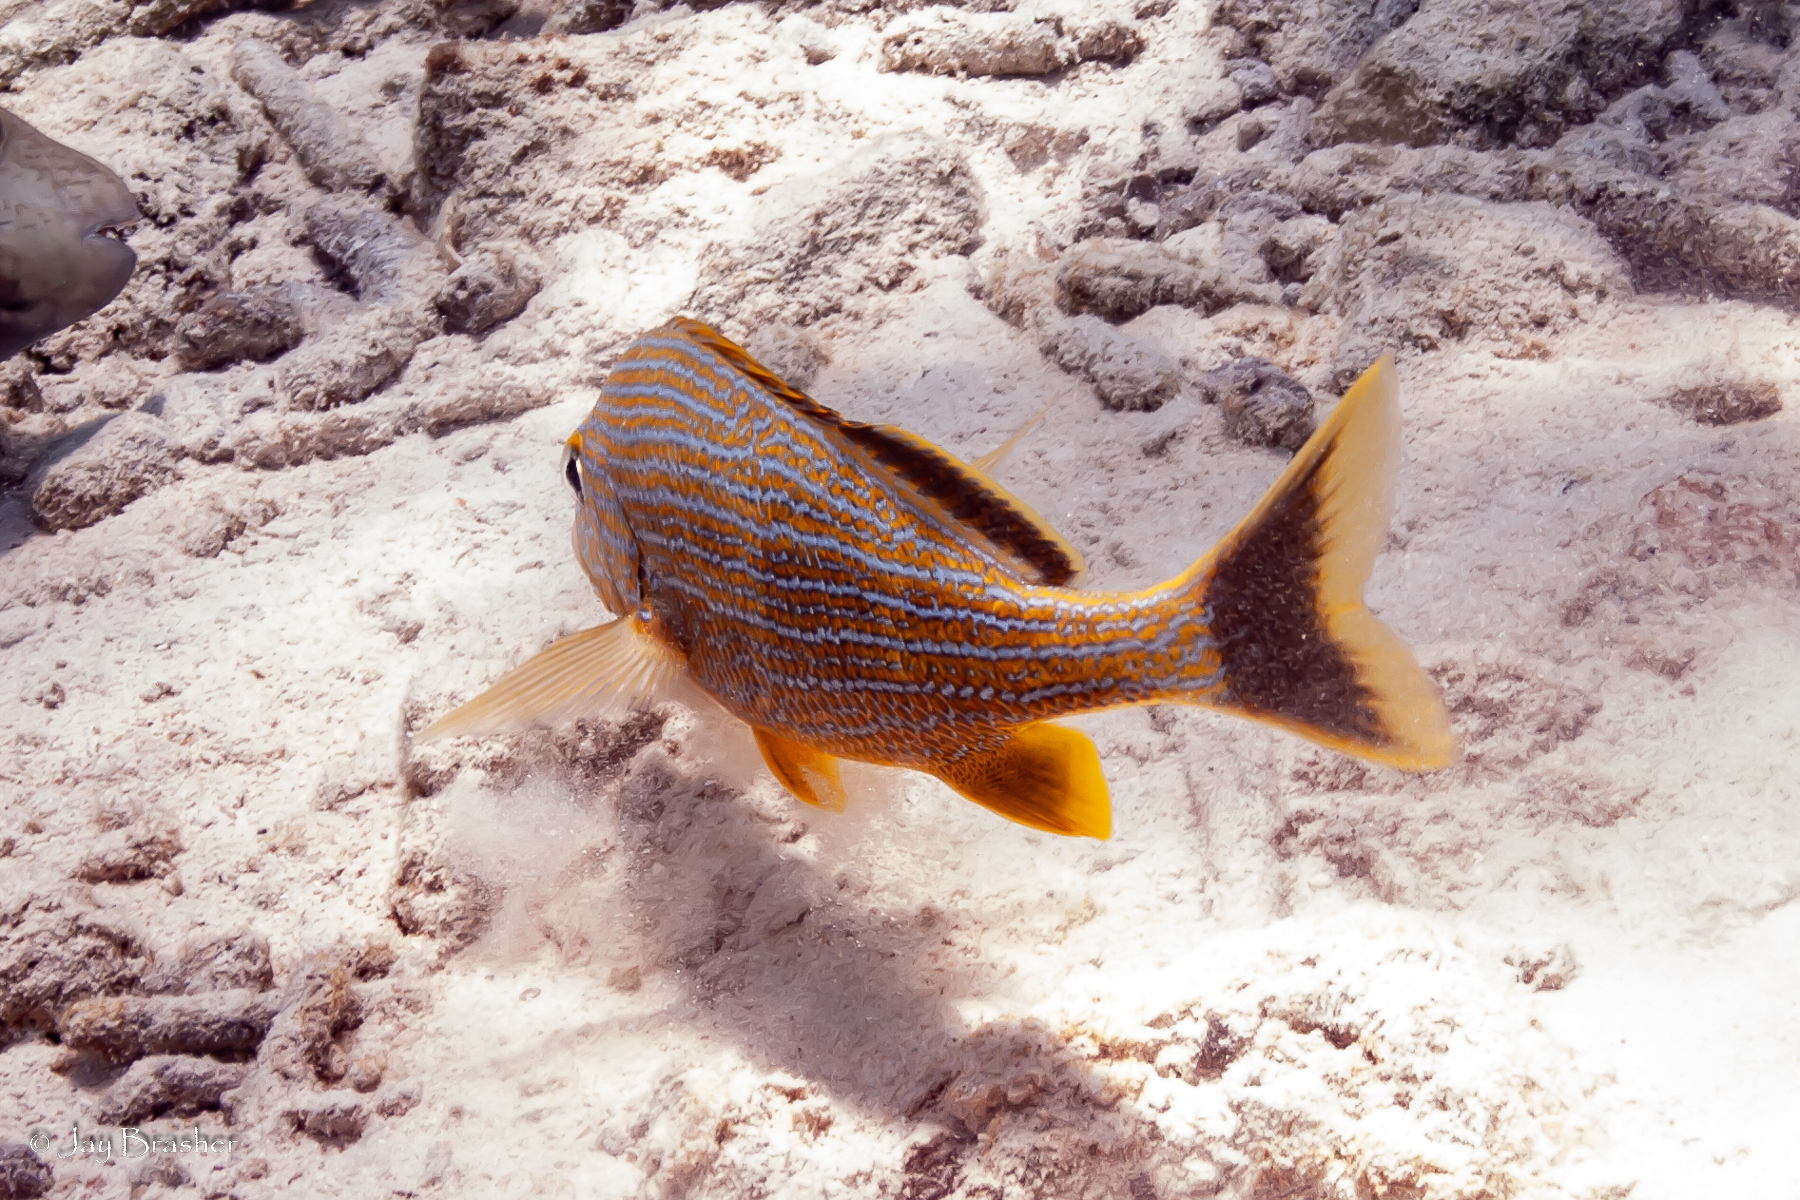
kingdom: Animalia
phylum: Chordata
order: Perciformes
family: Haemulidae
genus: Haemulon
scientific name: Haemulon sciurus
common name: Bluestriped grunt
